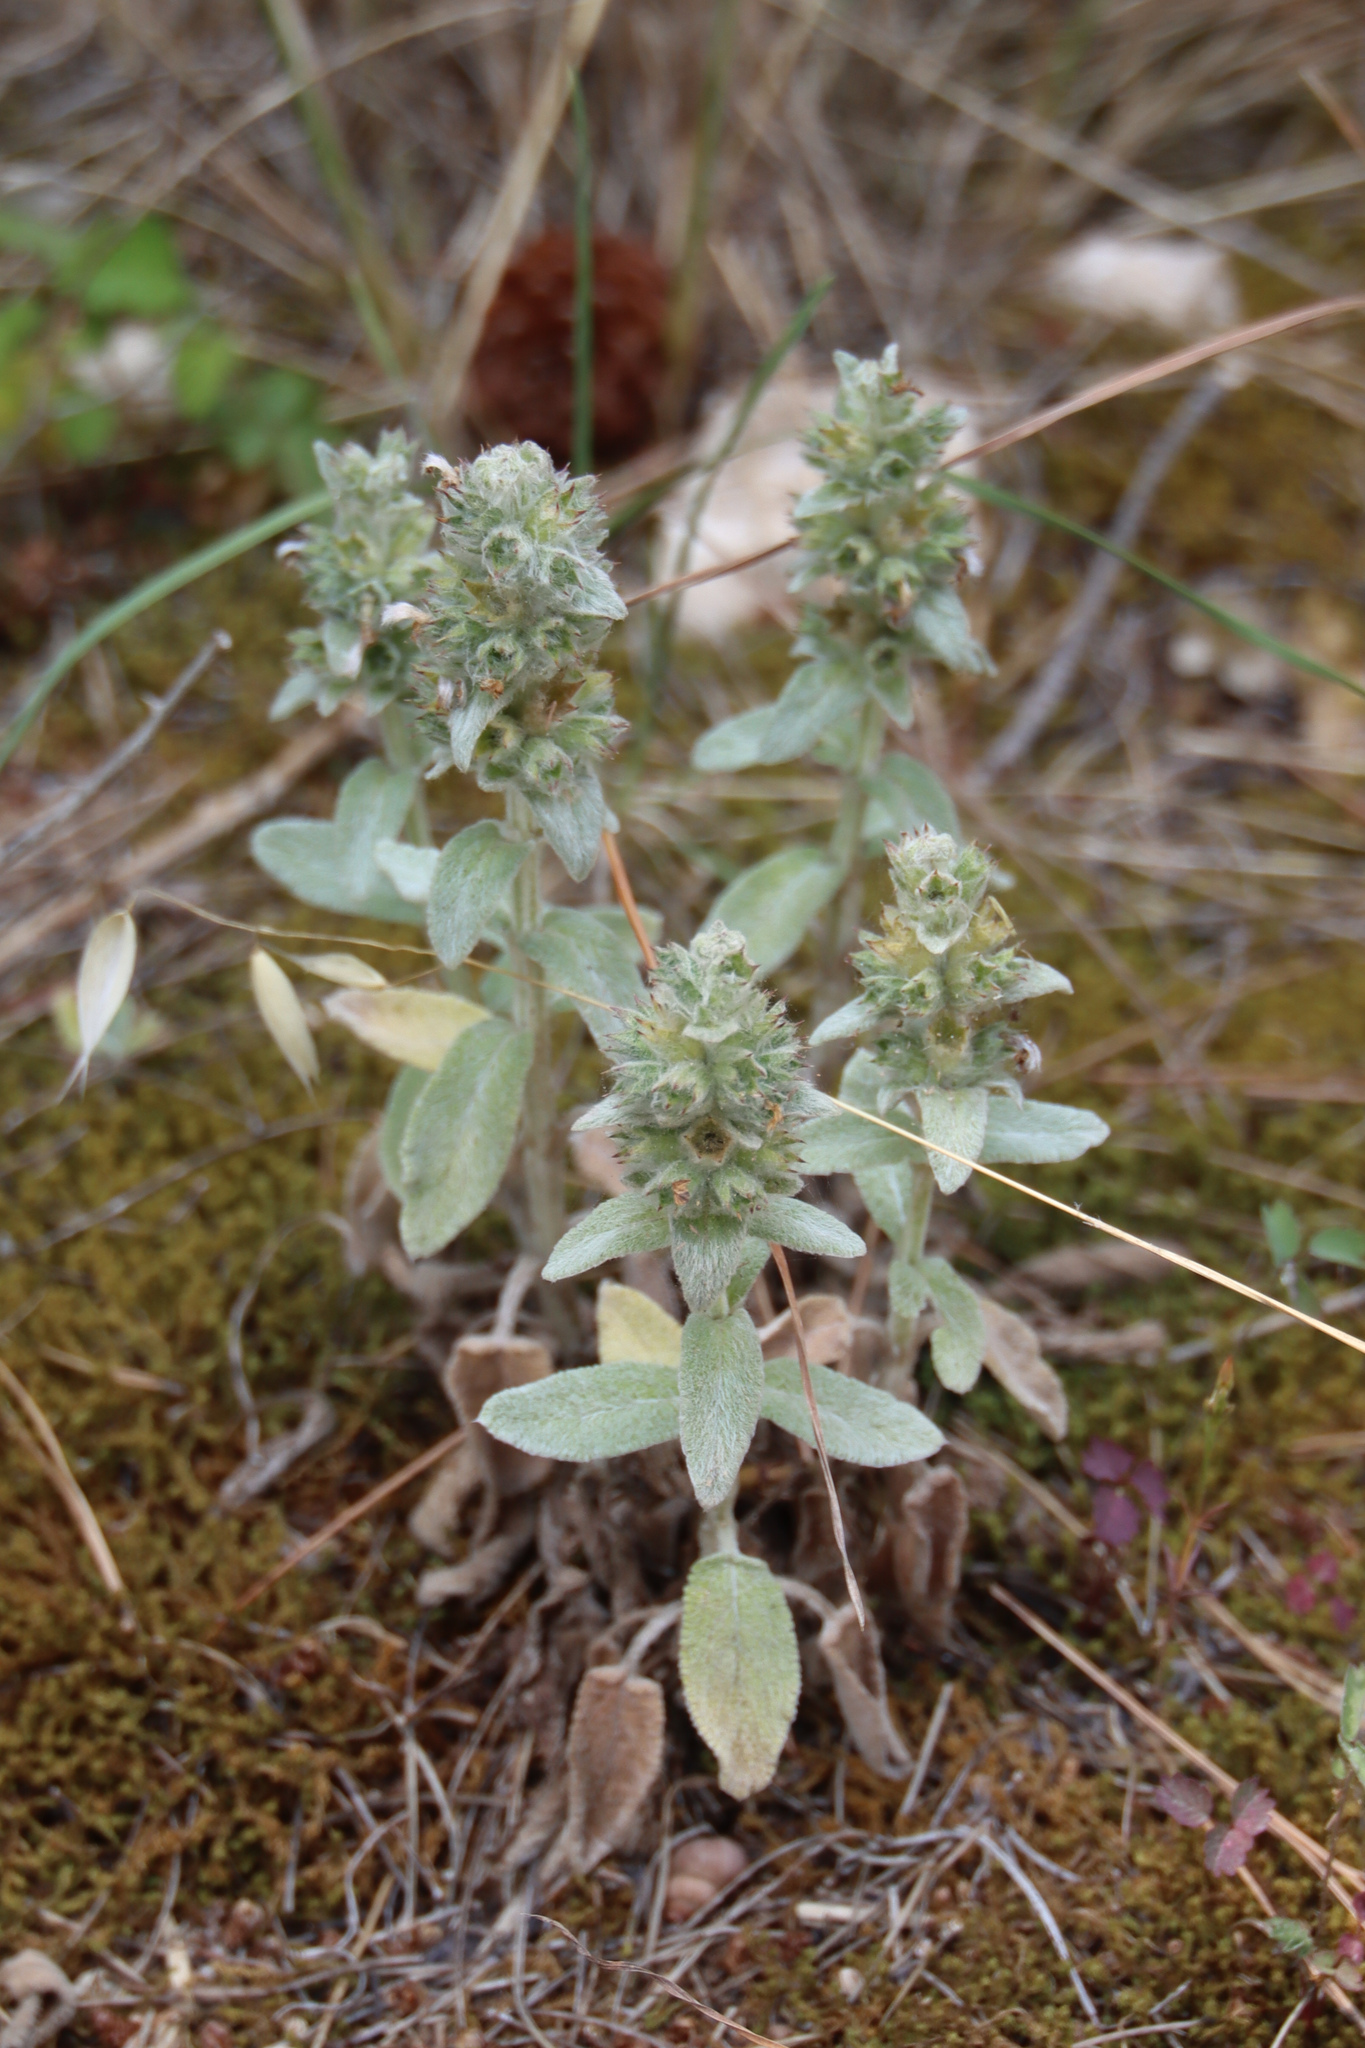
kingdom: Plantae
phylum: Tracheophyta
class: Magnoliopsida
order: Lamiales
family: Lamiaceae
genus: Stachys
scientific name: Stachys cretica
